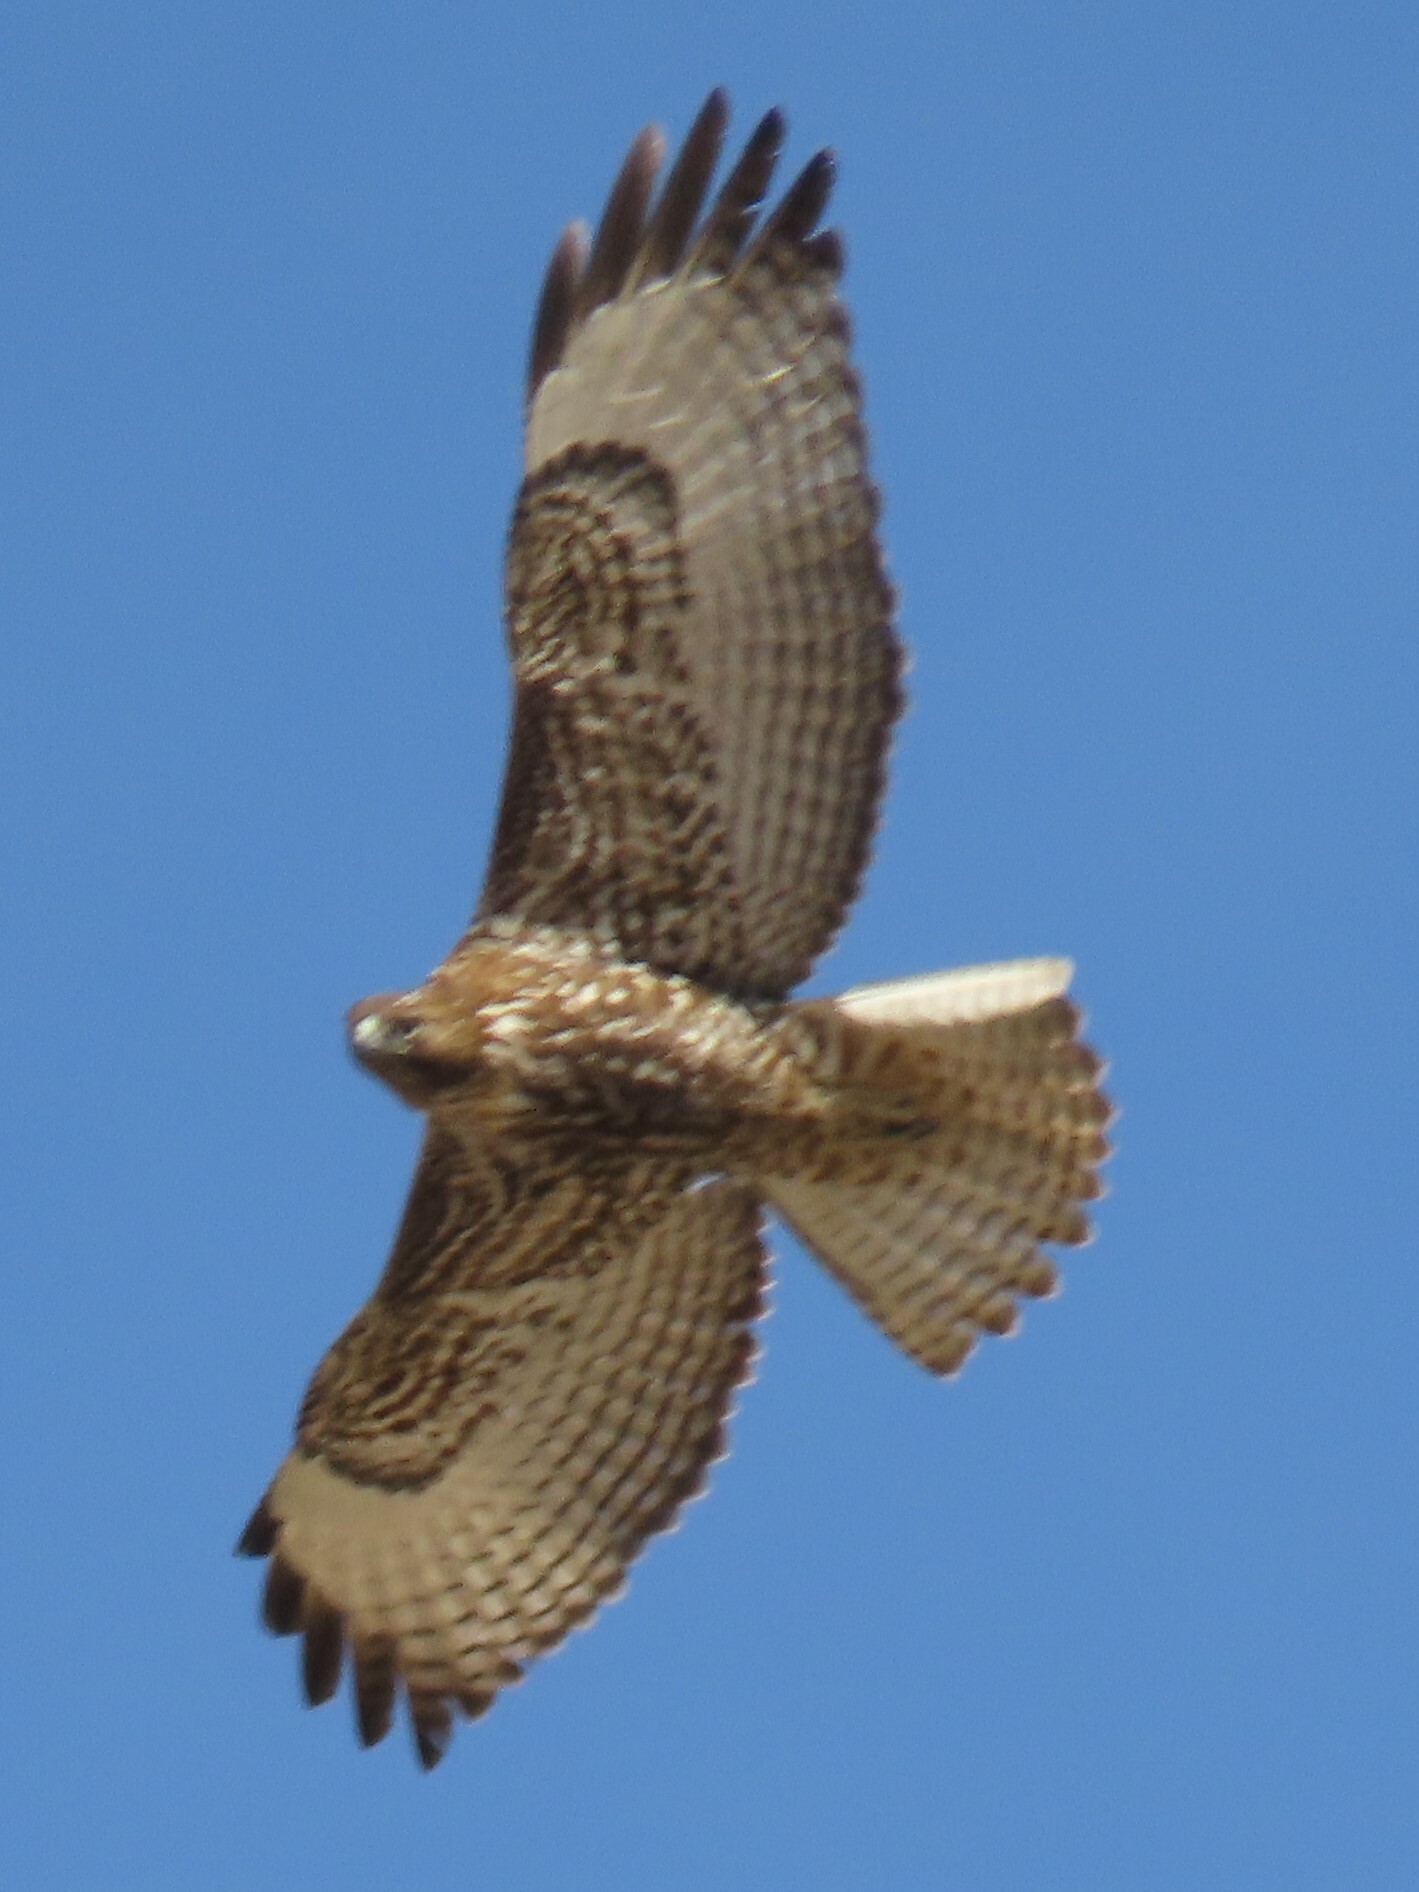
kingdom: Animalia
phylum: Chordata
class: Aves
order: Accipitriformes
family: Accipitridae
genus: Buteo
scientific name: Buteo jamaicensis
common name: Red-tailed hawk
